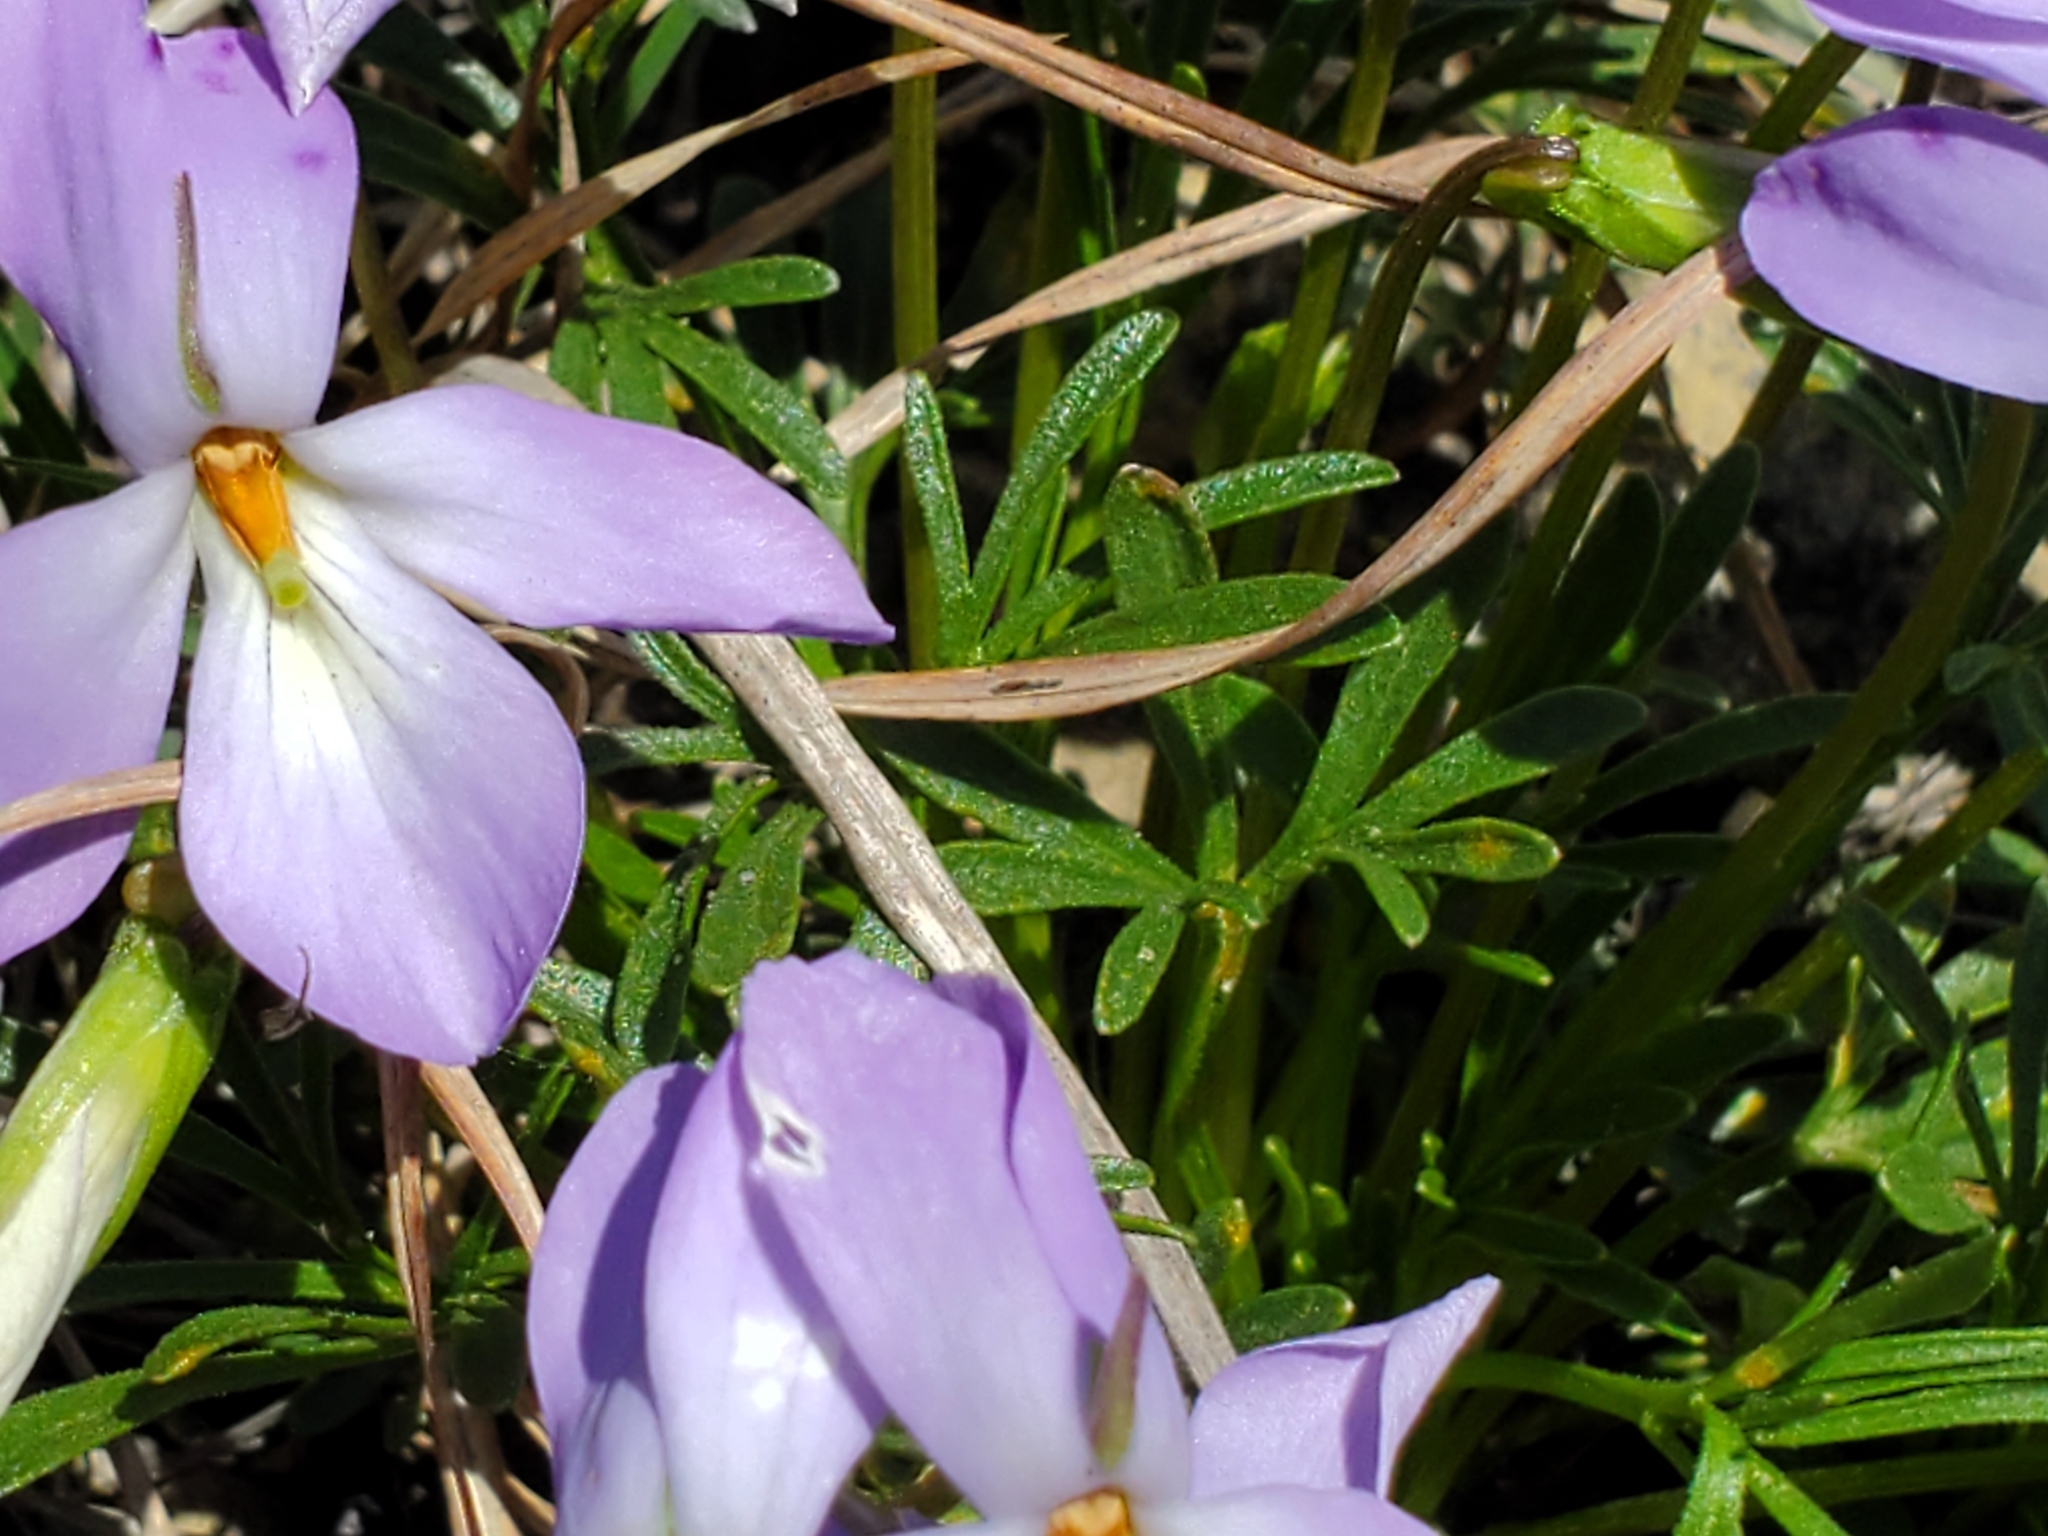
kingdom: Plantae
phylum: Tracheophyta
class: Magnoliopsida
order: Malpighiales
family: Violaceae
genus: Viola
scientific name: Viola pedata
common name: Pansy violet
